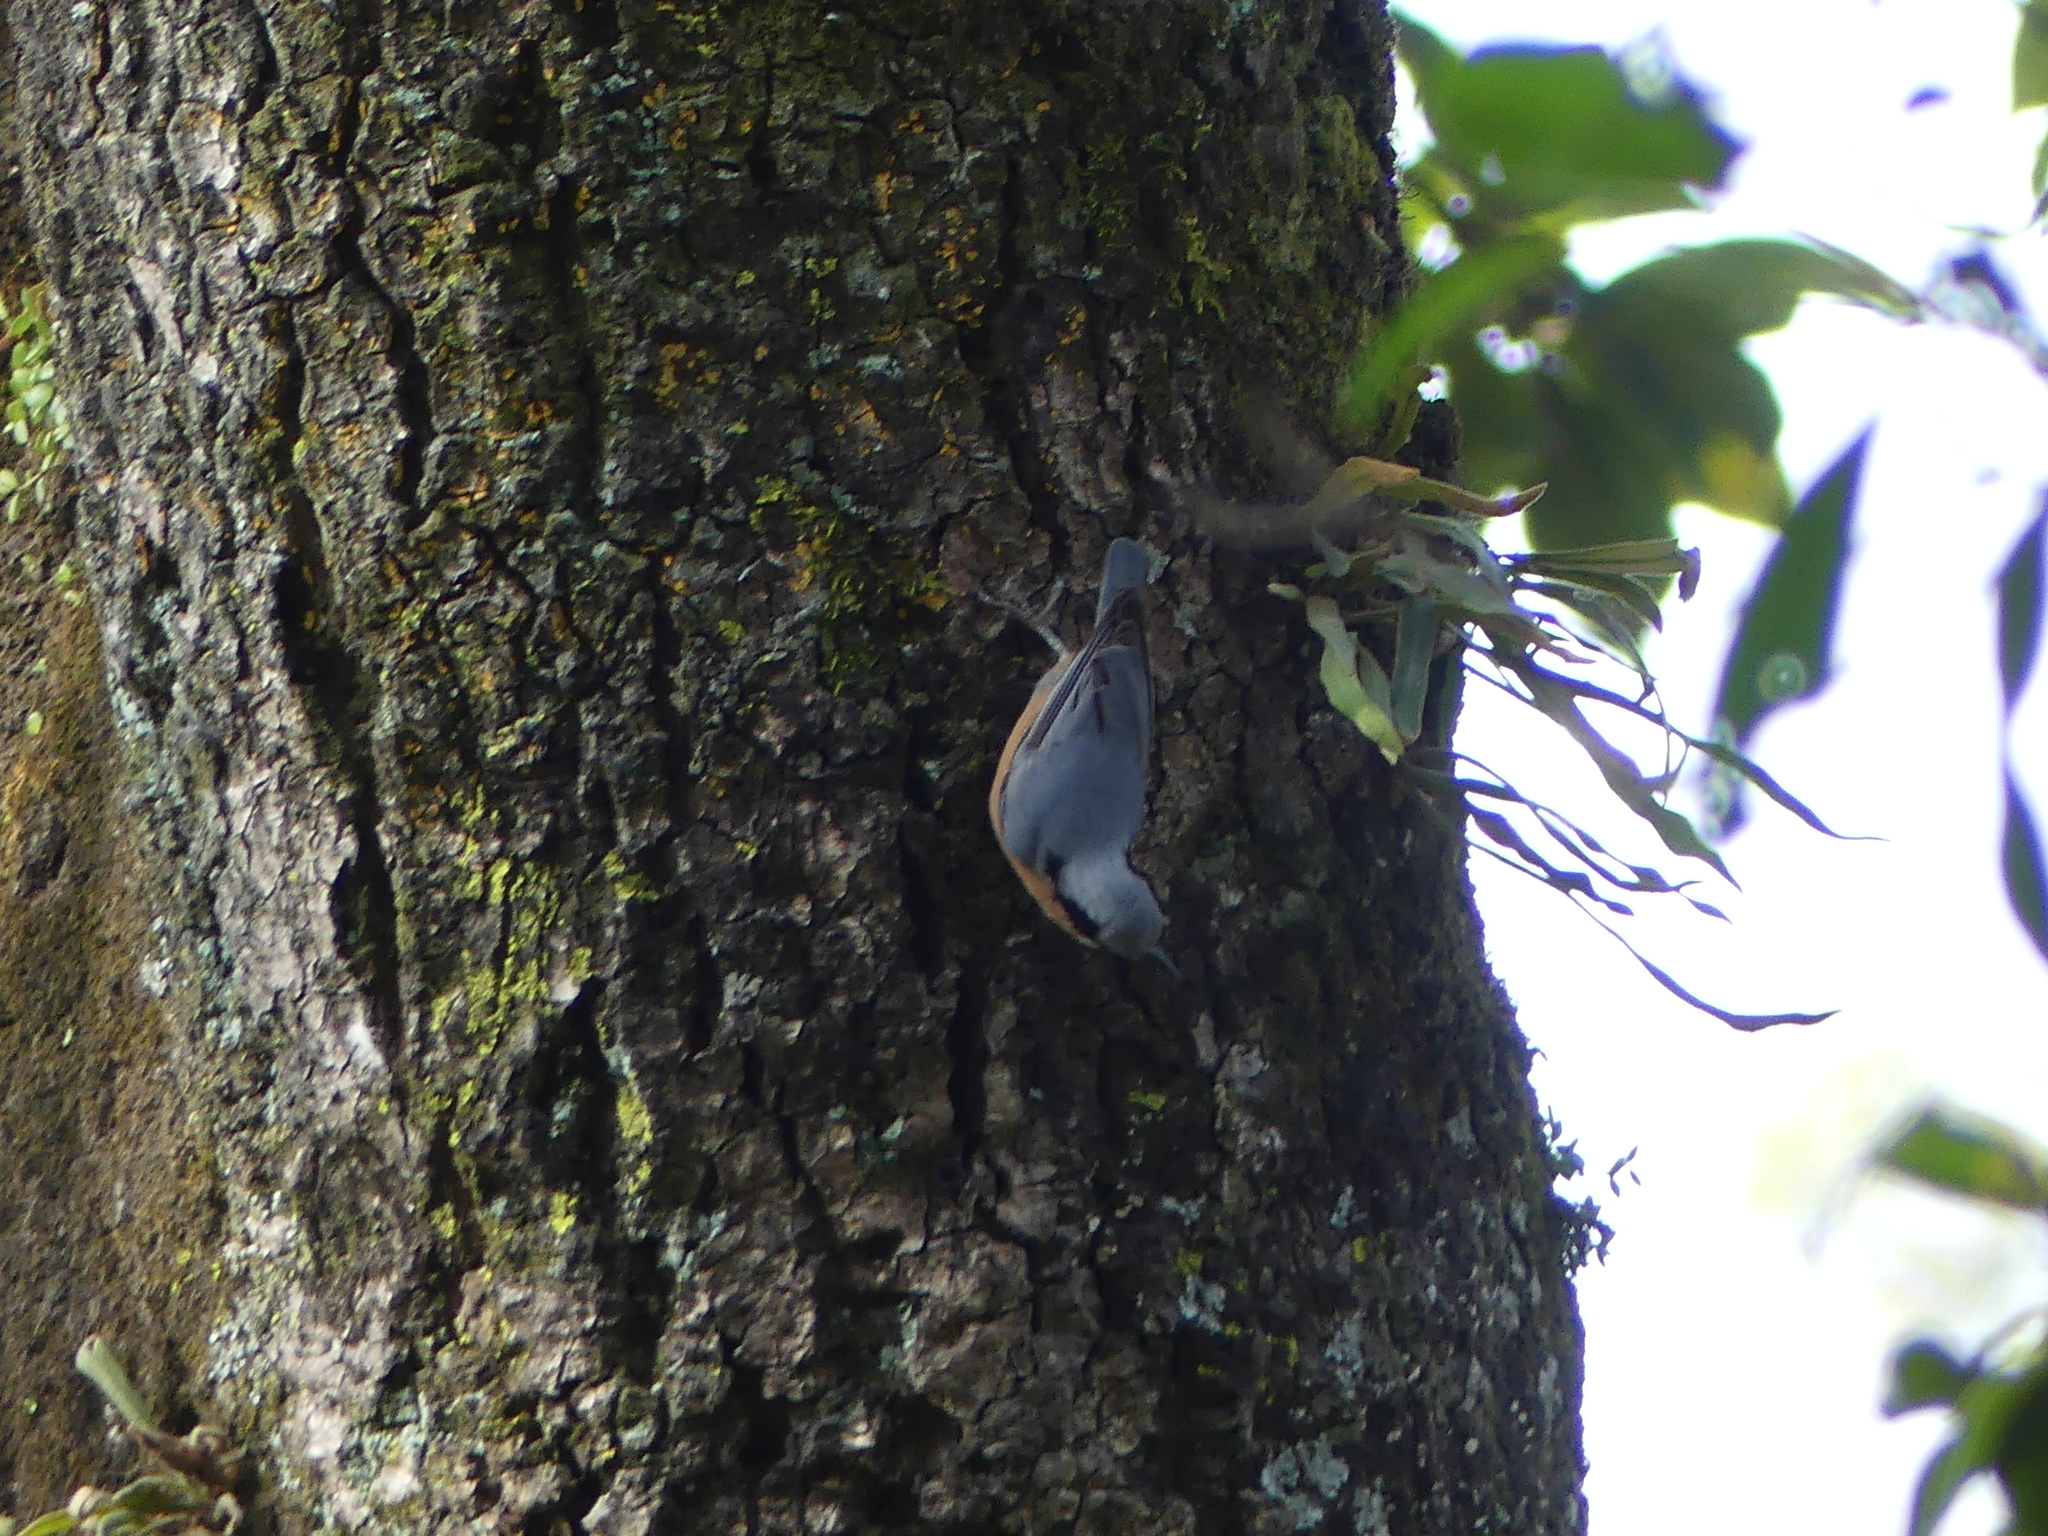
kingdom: Animalia
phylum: Chordata
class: Aves
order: Passeriformes
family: Sittidae
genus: Sitta
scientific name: Sitta cinnamoventris
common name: Chestnut-bellied nuthatch
